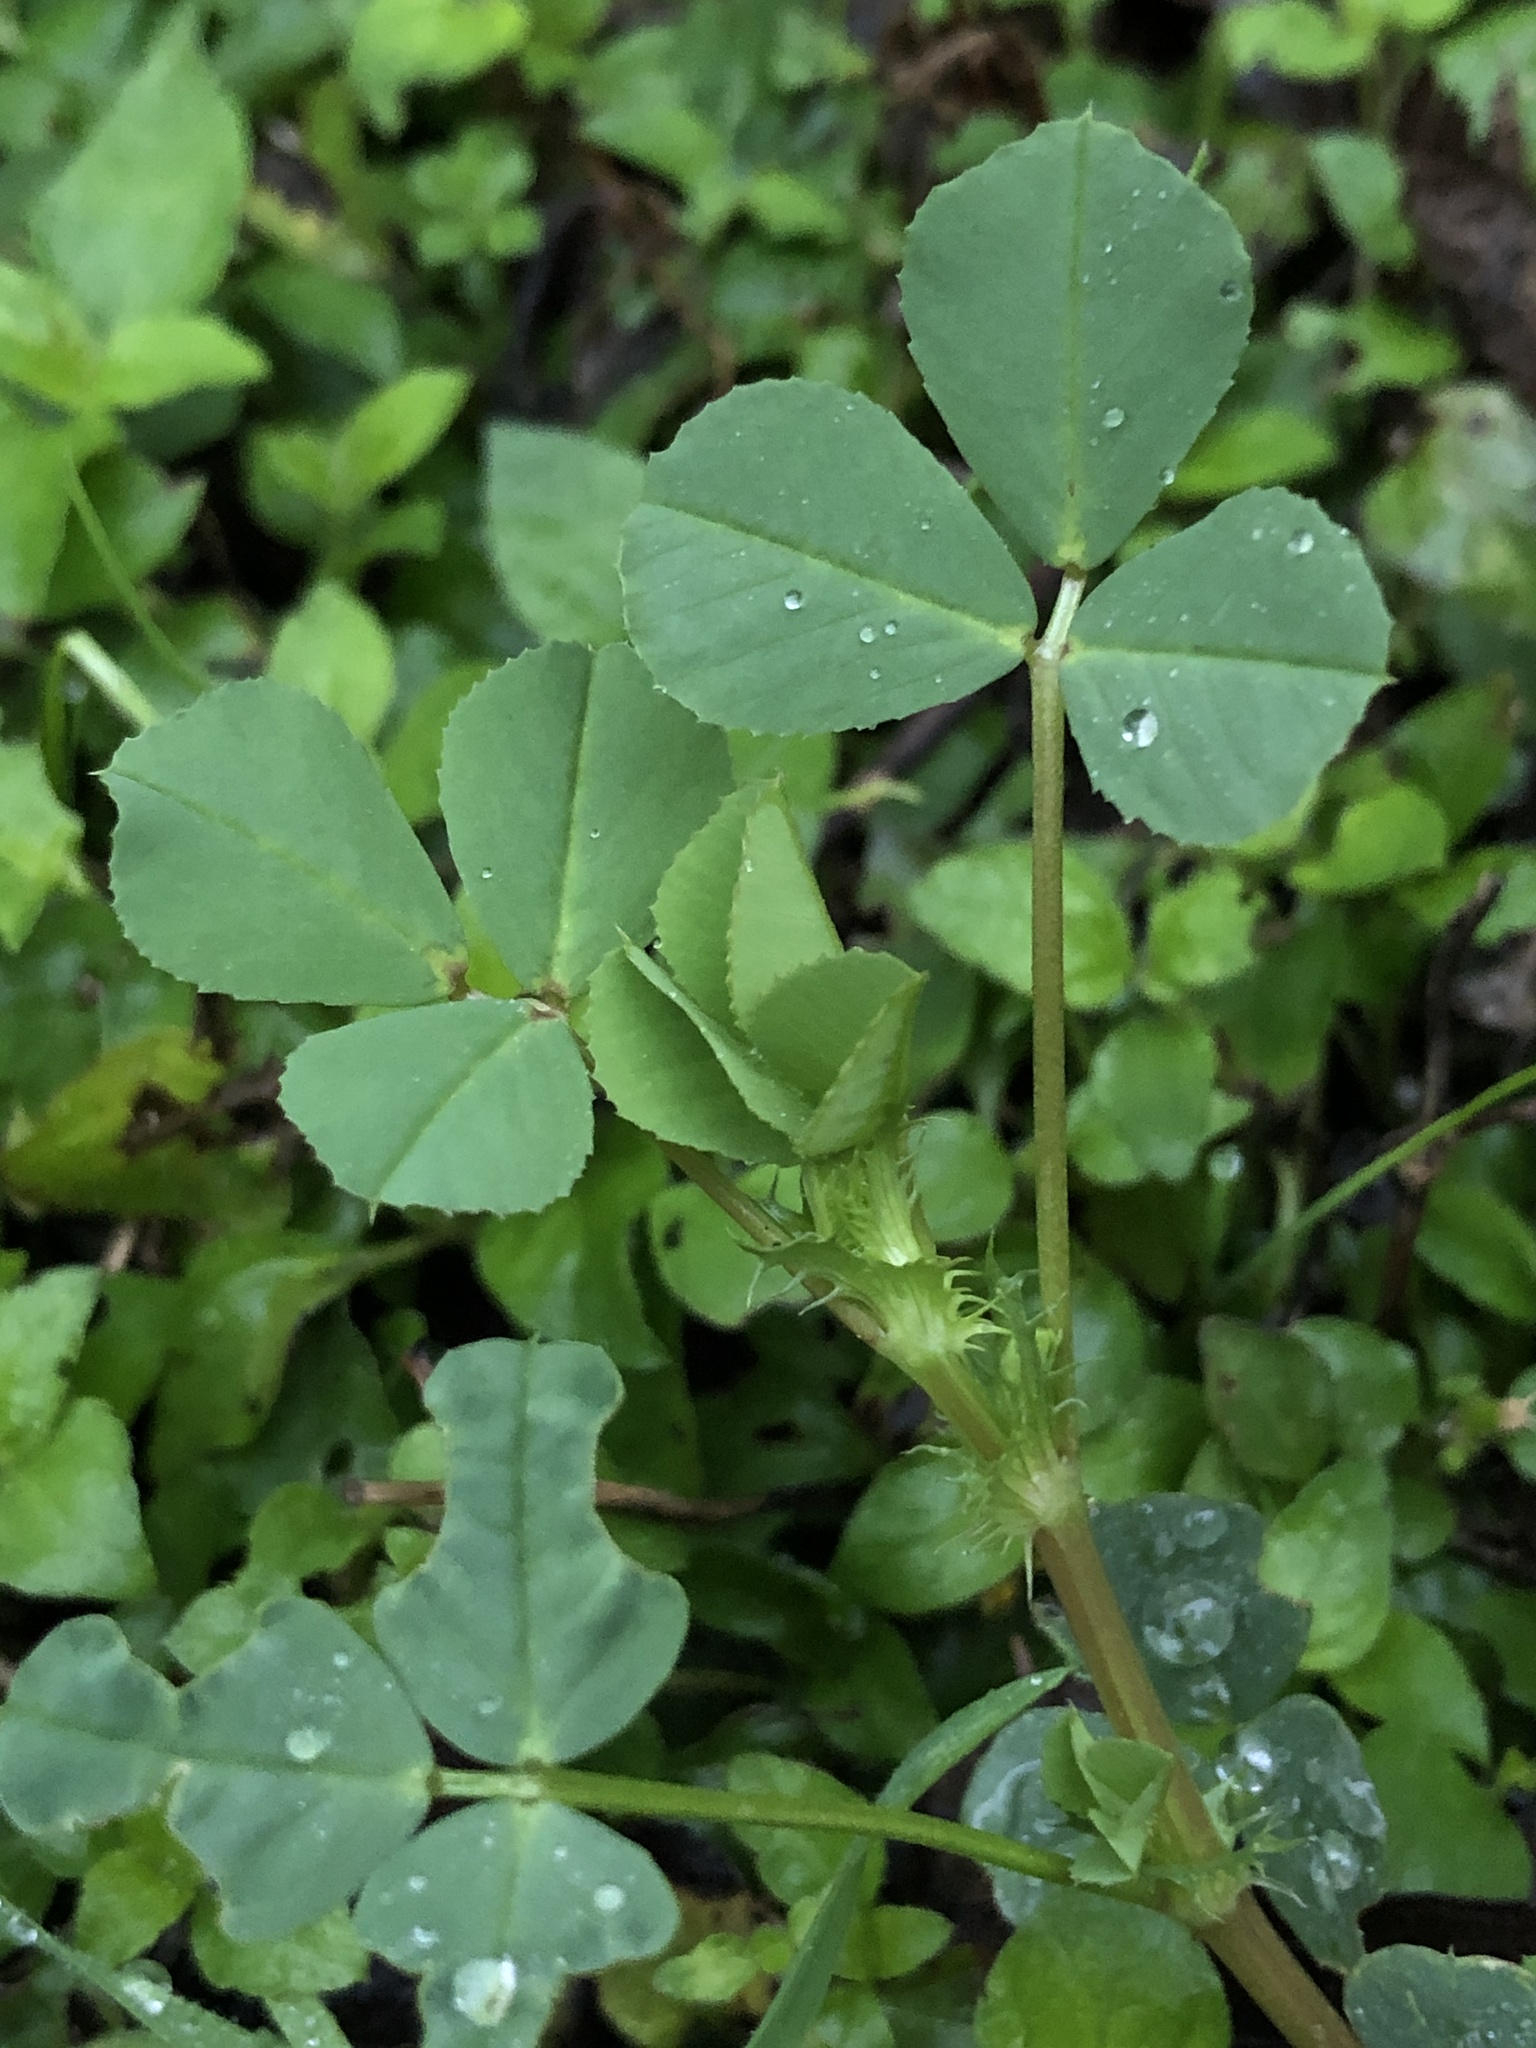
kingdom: Plantae
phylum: Tracheophyta
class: Magnoliopsida
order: Fabales
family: Fabaceae
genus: Medicago
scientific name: Medicago polymorpha
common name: Burclover
